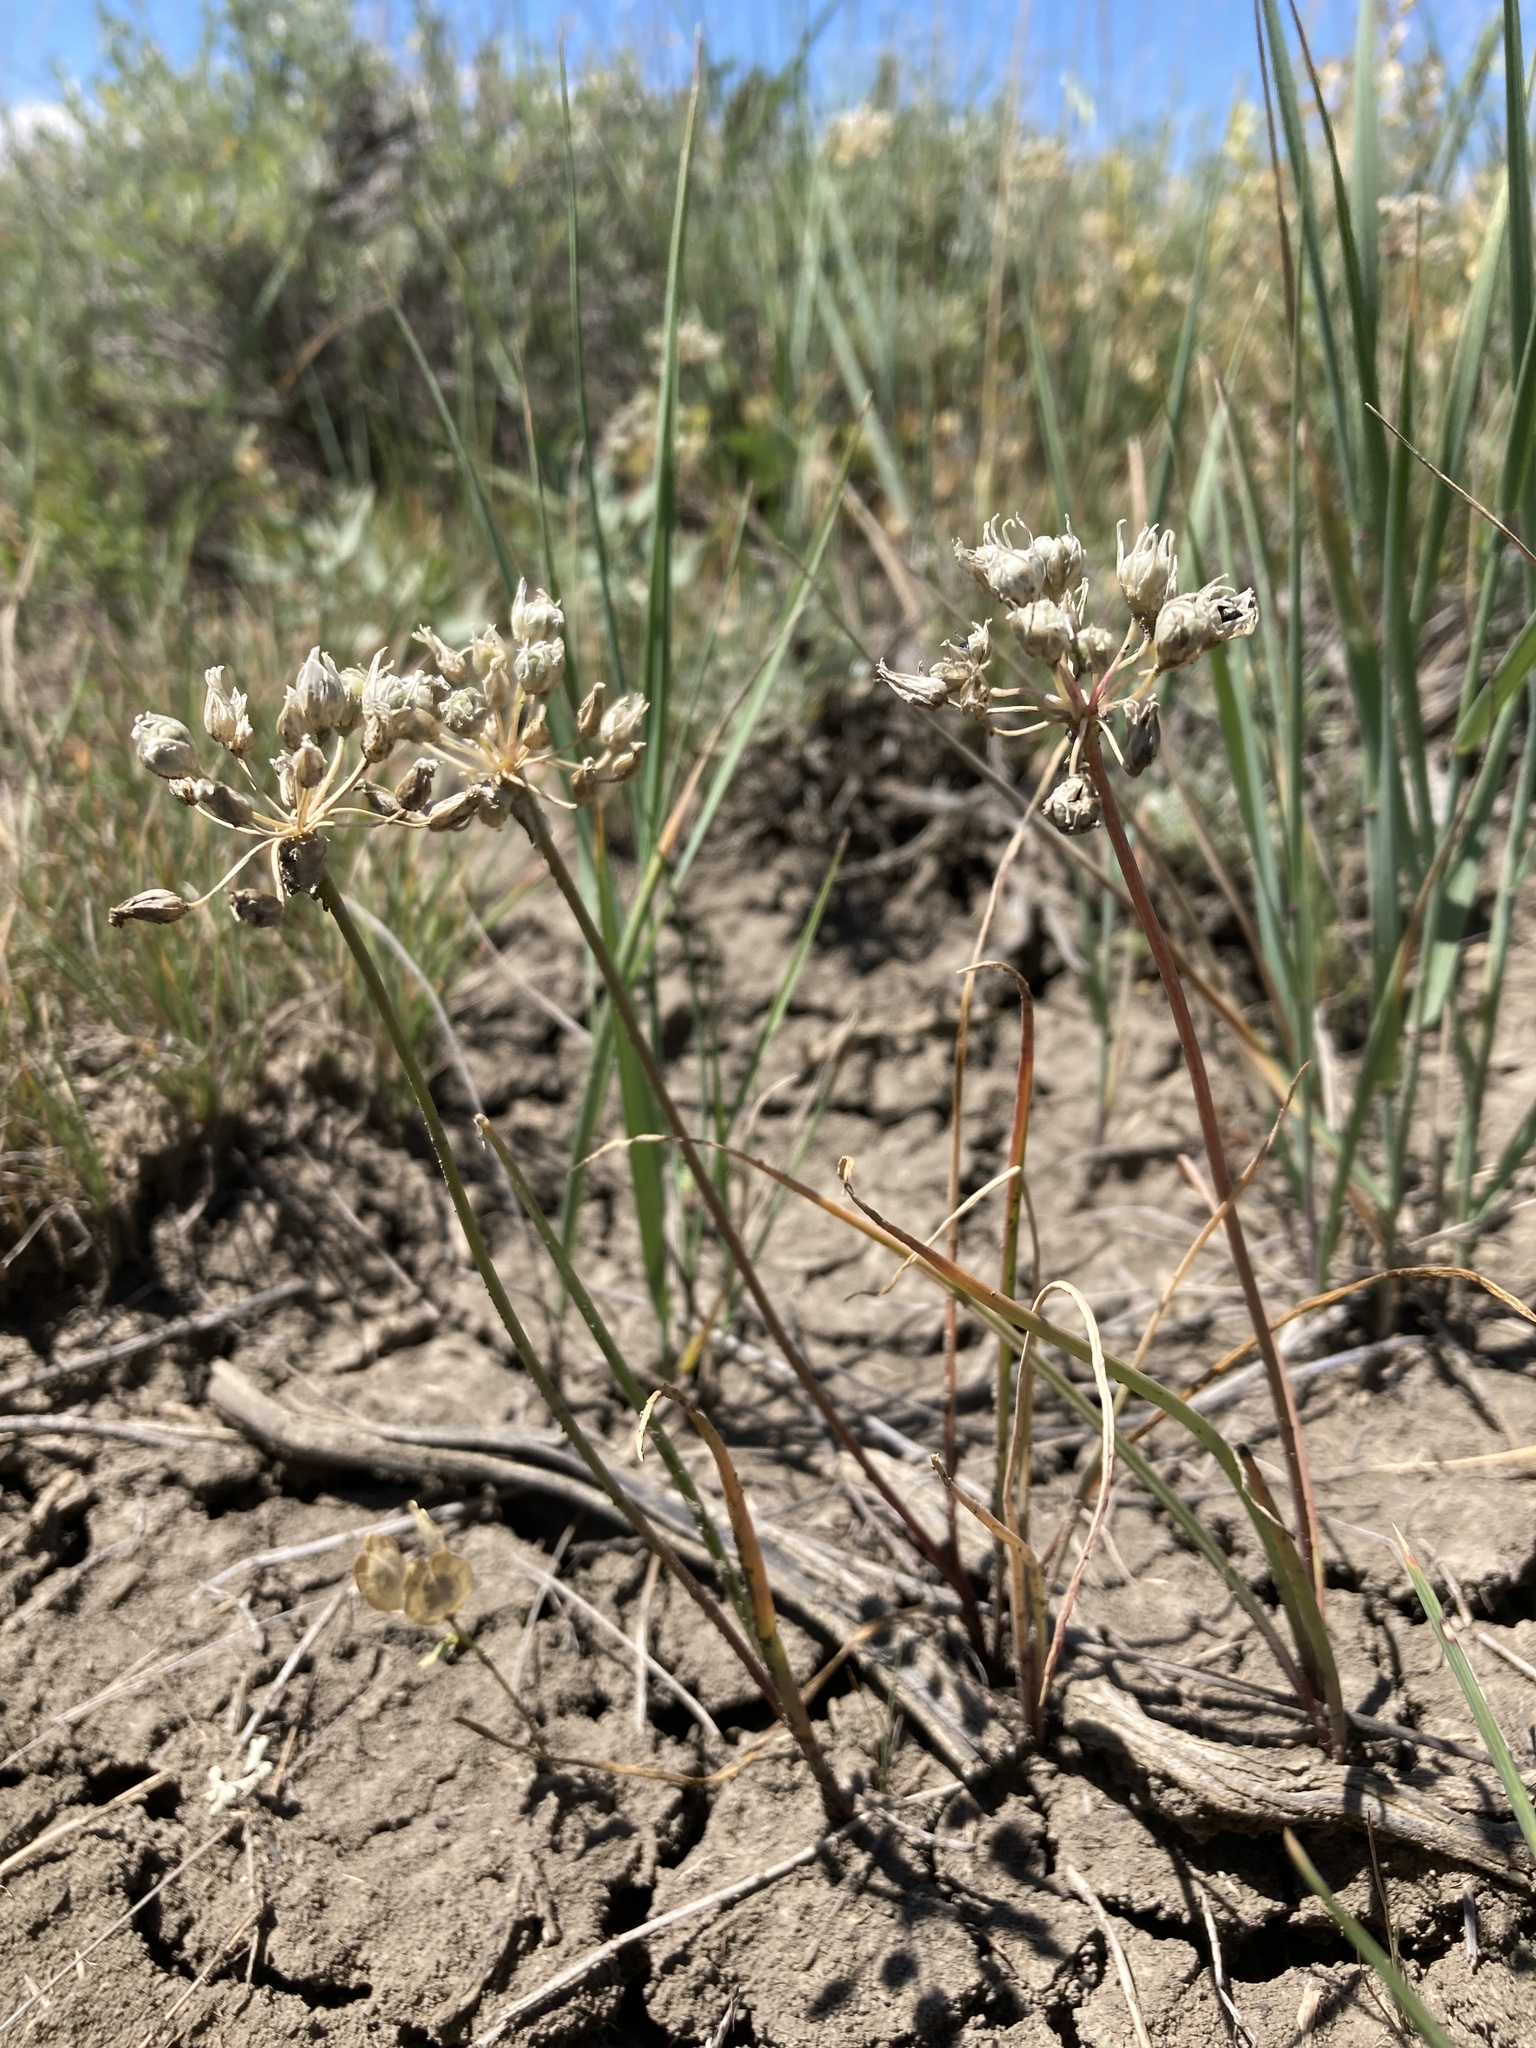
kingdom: Plantae
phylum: Tracheophyta
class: Liliopsida
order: Asparagales
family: Amaryllidaceae
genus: Allium
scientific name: Allium textile
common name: Prairie onion
